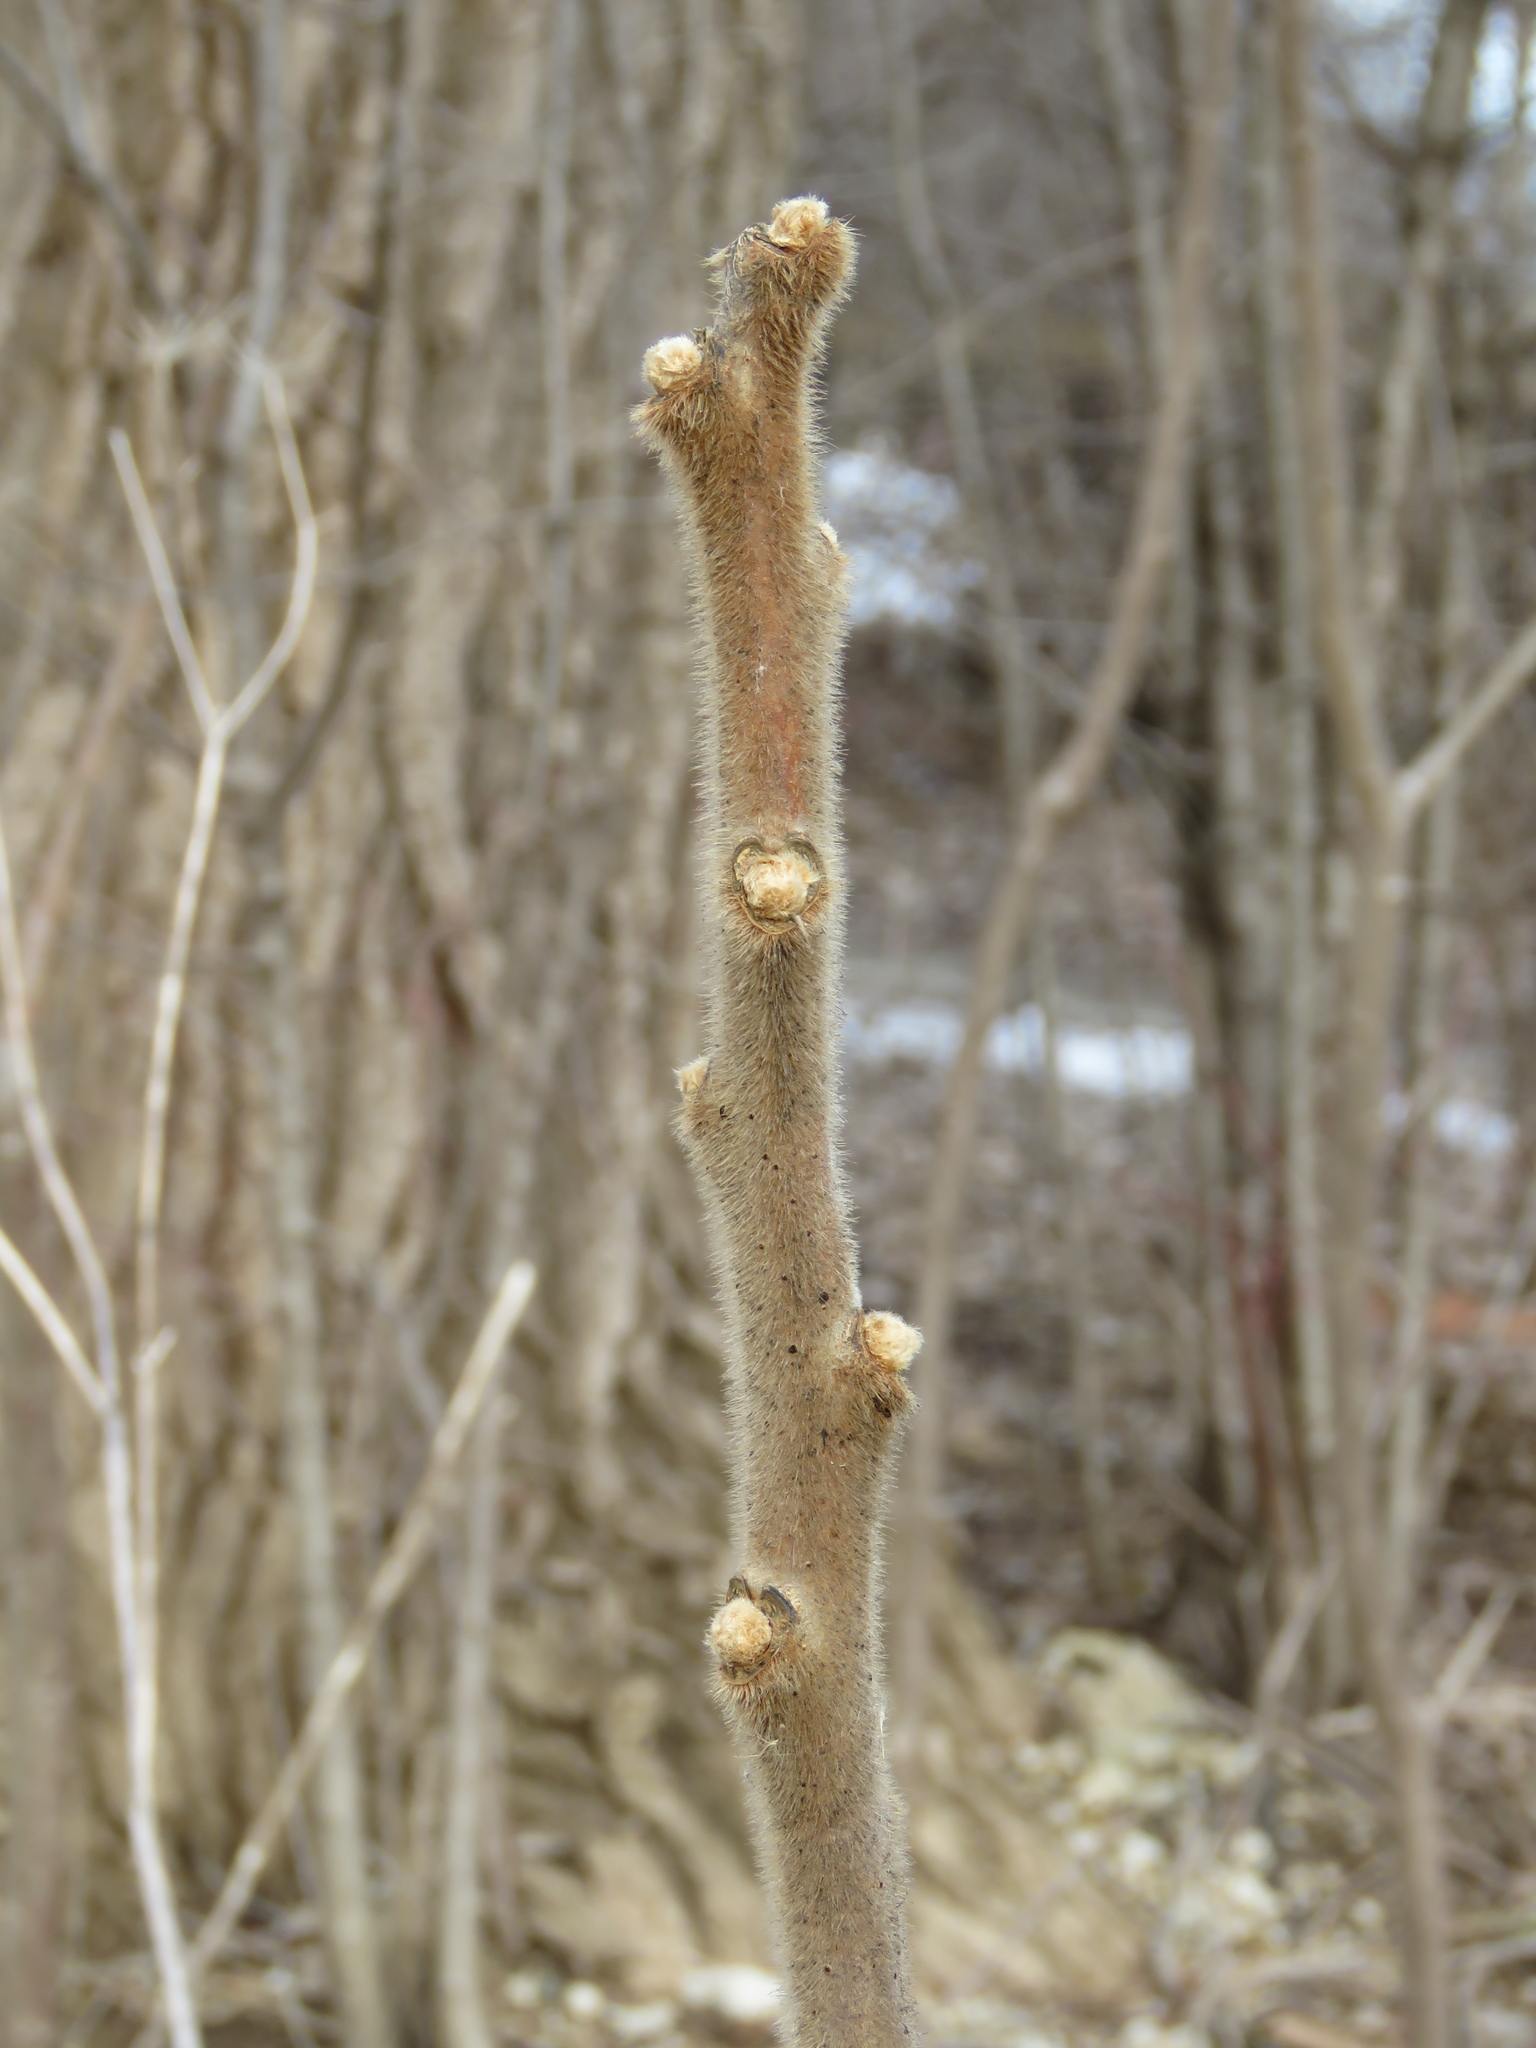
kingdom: Plantae
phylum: Tracheophyta
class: Magnoliopsida
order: Sapindales
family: Anacardiaceae
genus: Rhus
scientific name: Rhus typhina
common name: Staghorn sumac
